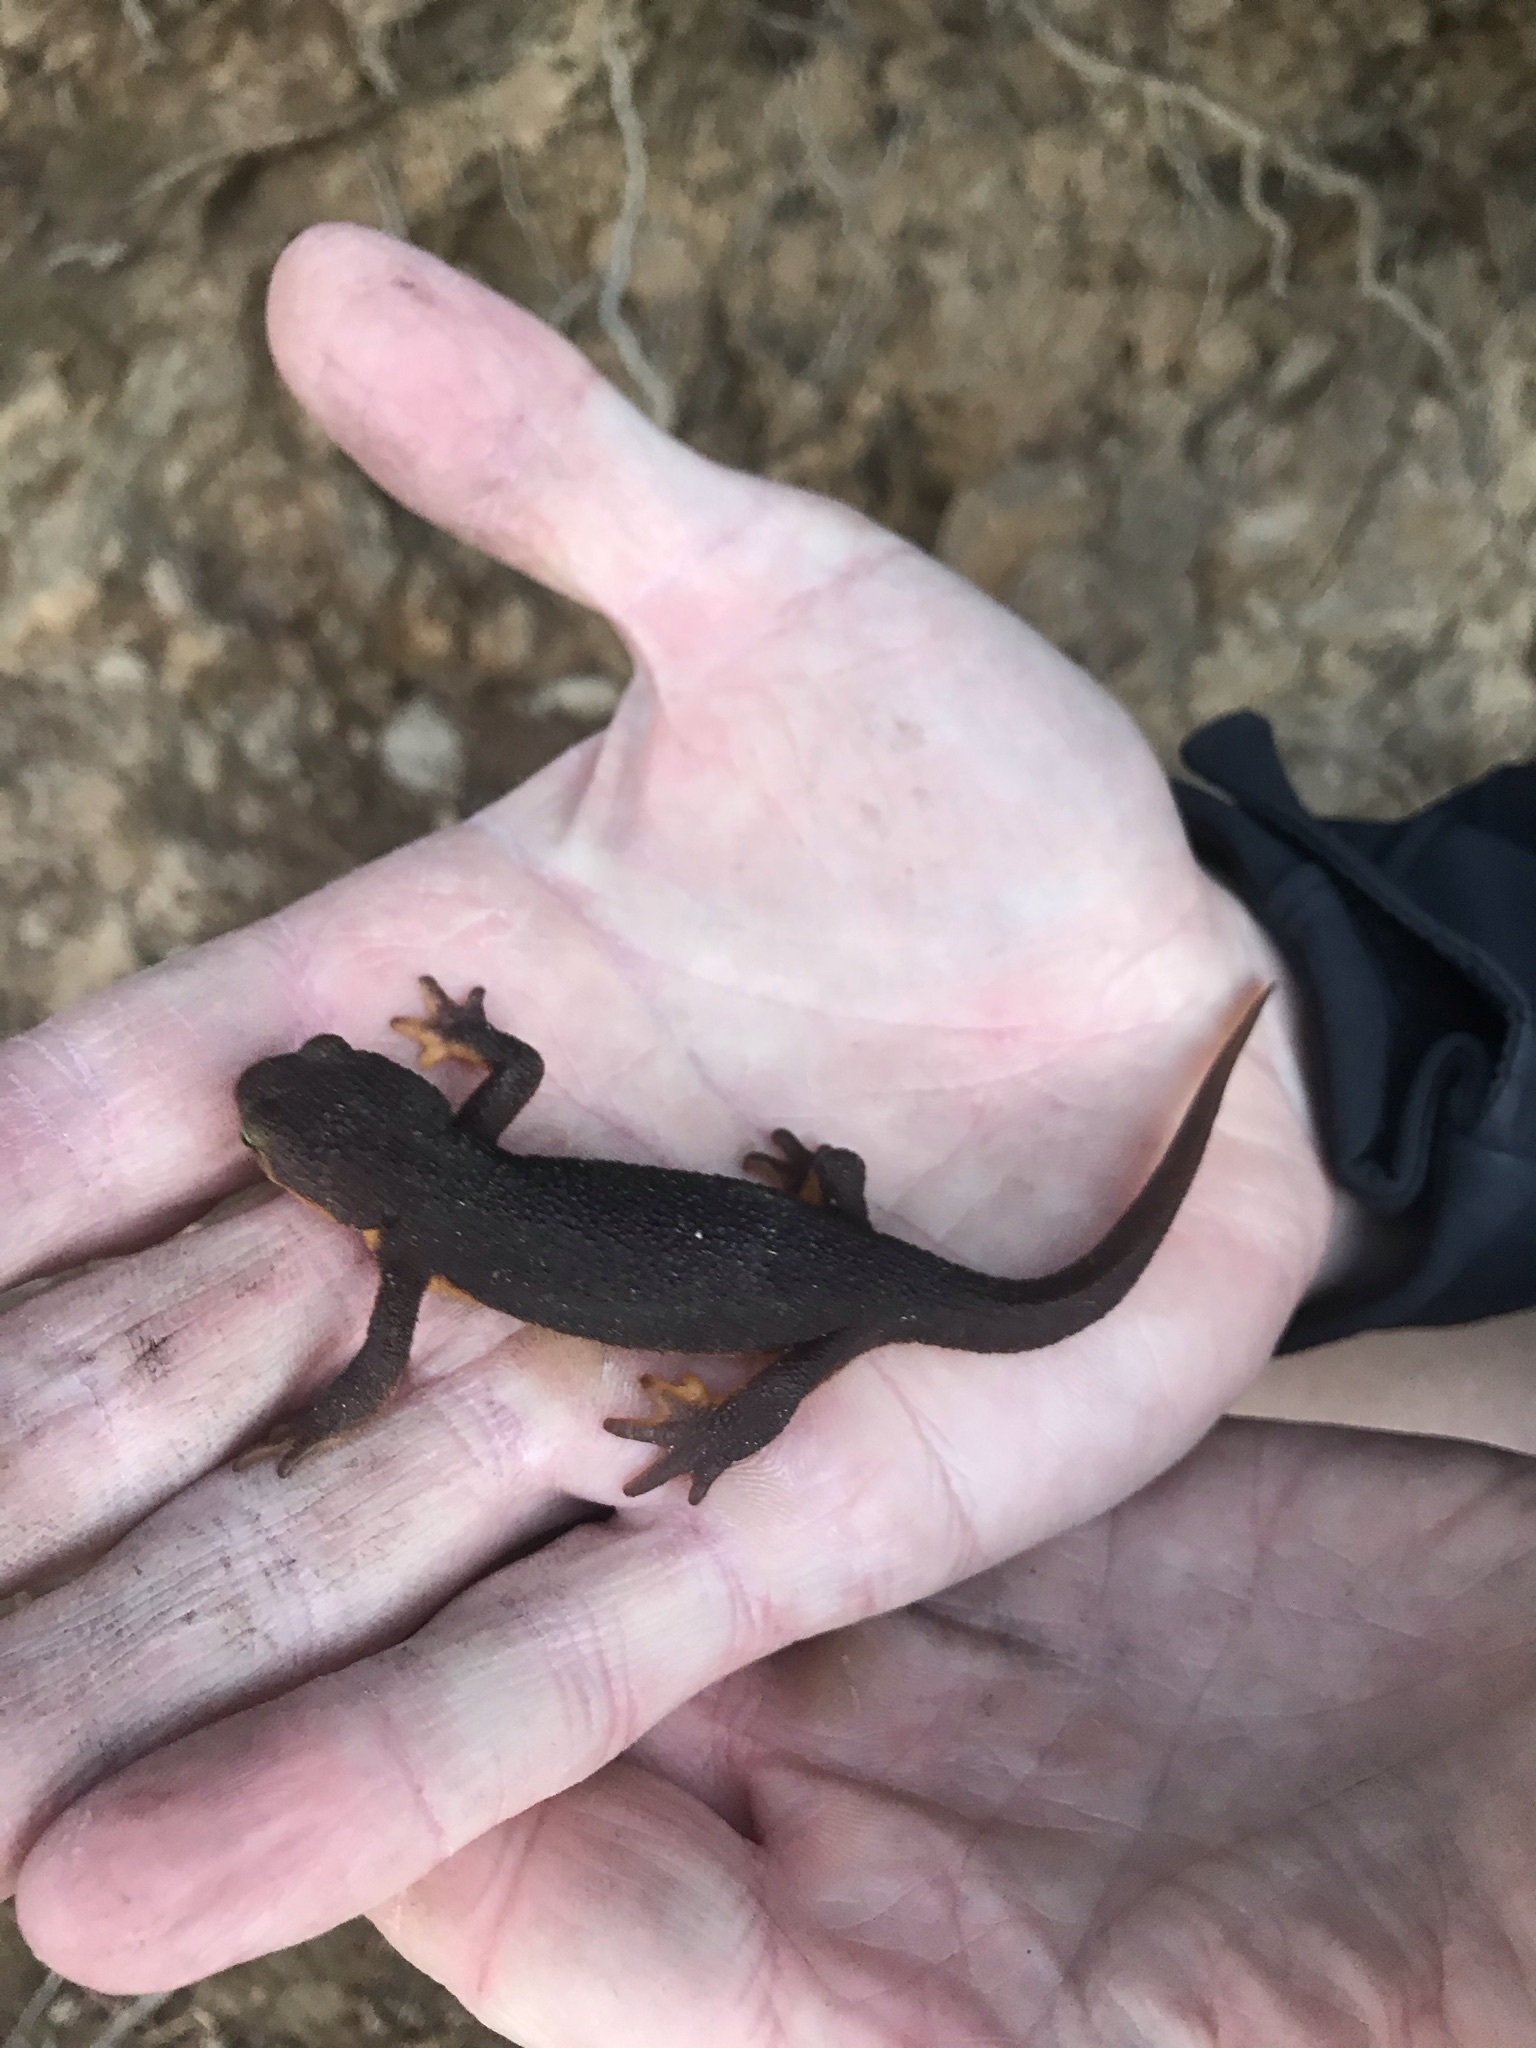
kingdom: Animalia
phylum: Chordata
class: Amphibia
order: Caudata
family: Salamandridae
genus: Taricha
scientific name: Taricha torosa
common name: California newt
